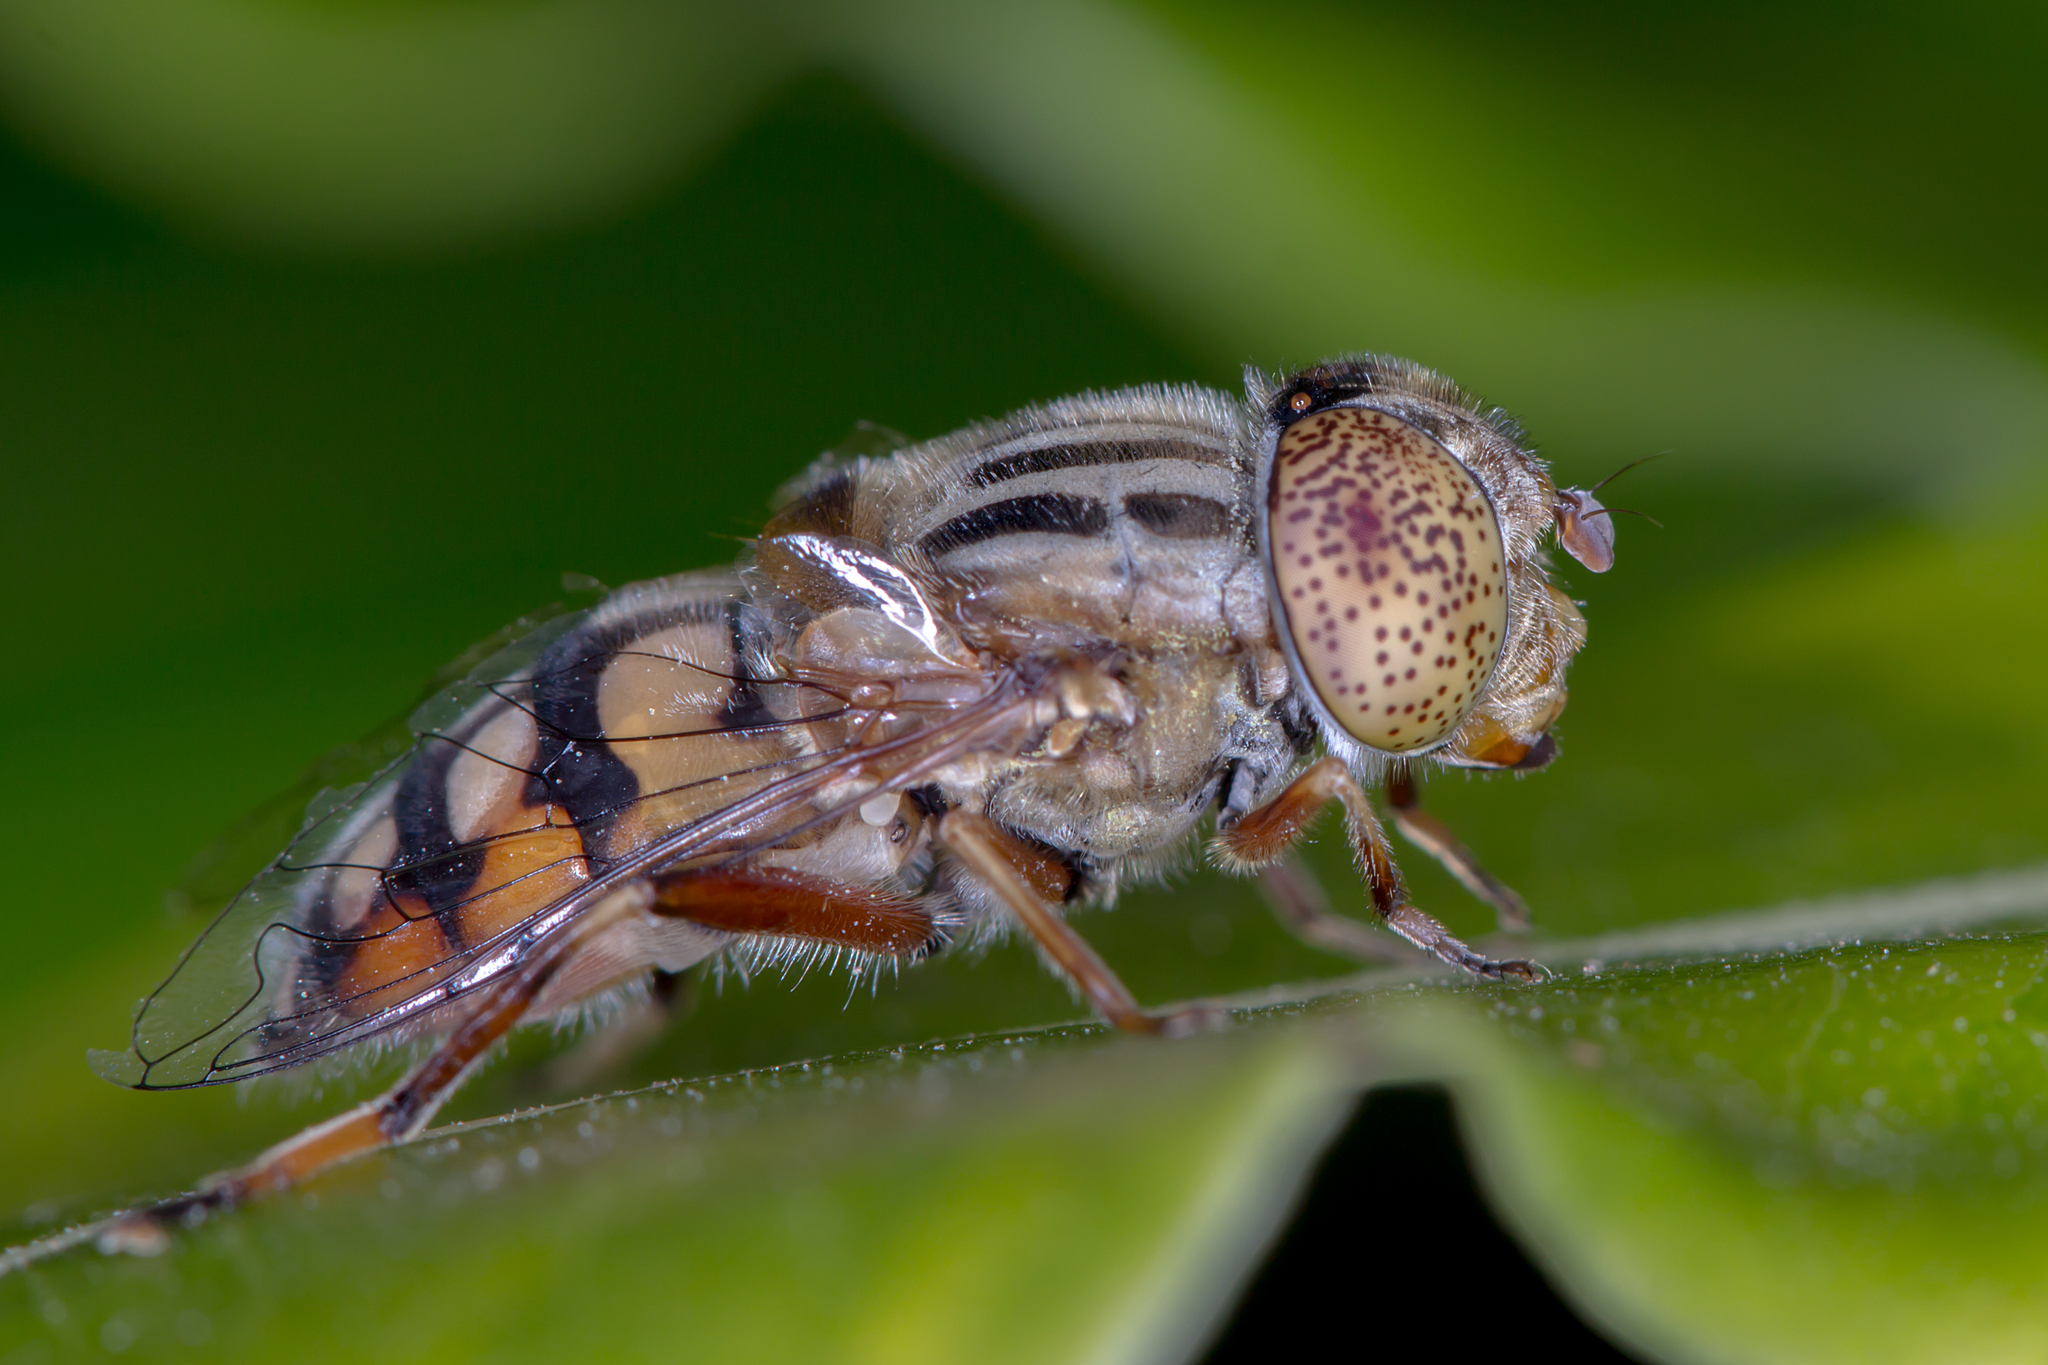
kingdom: Animalia
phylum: Arthropoda
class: Insecta
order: Diptera
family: Syrphidae
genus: Eristalinus
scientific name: Eristalinus punctulatus
